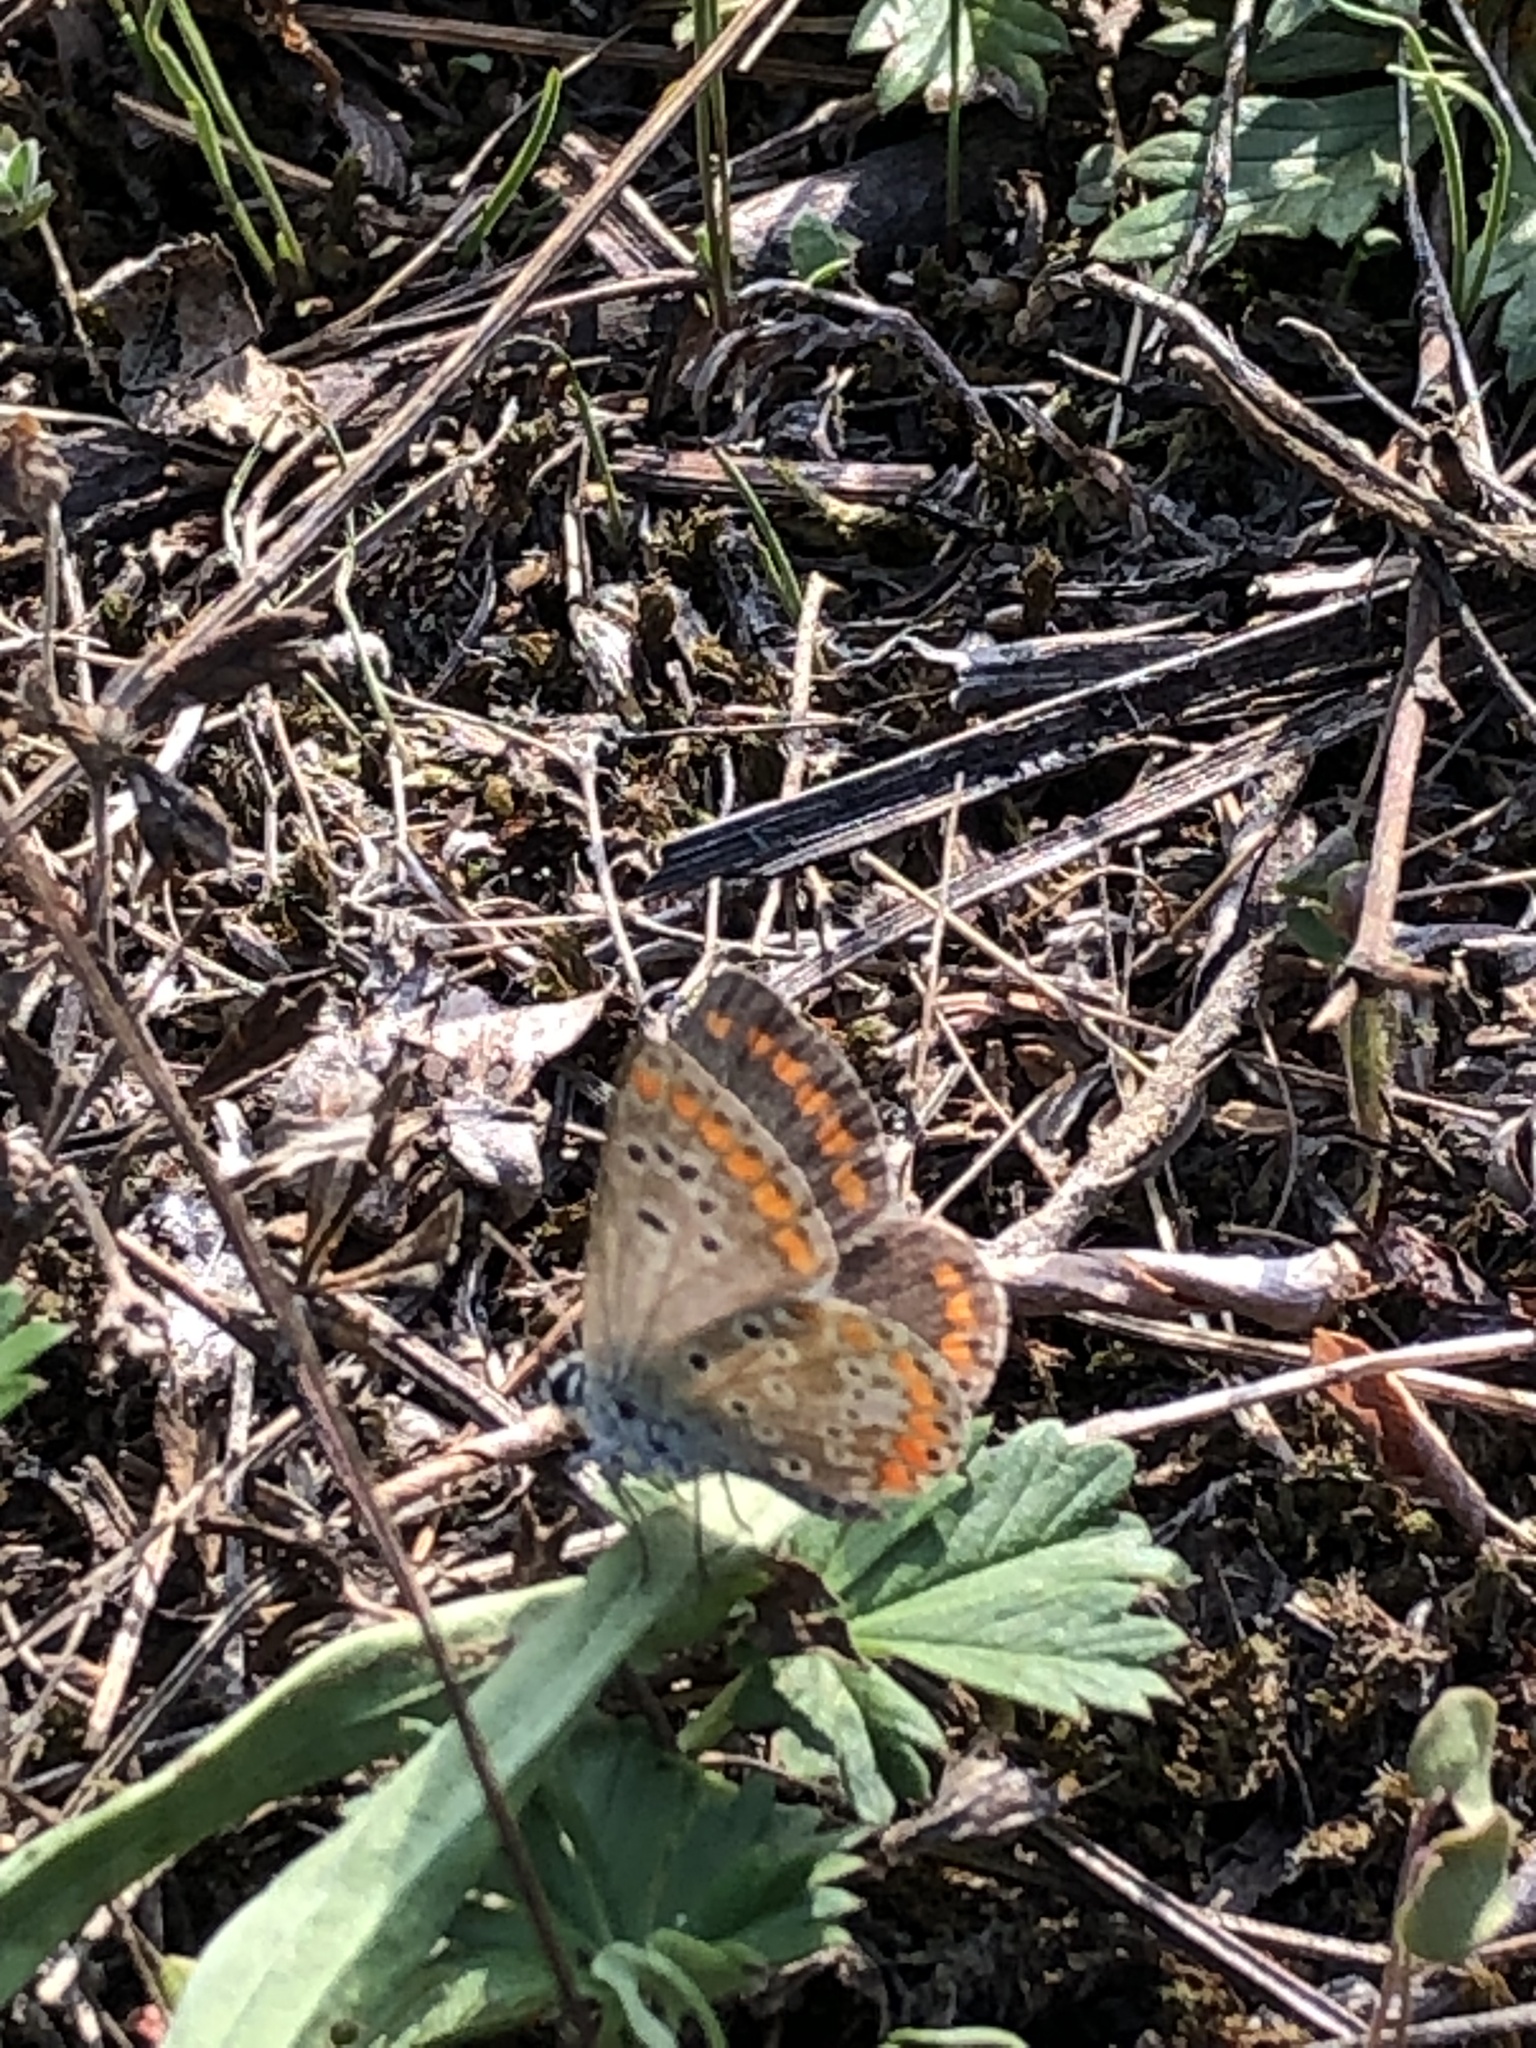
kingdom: Animalia
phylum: Arthropoda
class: Insecta
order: Lepidoptera
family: Lycaenidae
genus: Aricia
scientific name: Aricia agestis
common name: Brown argus
